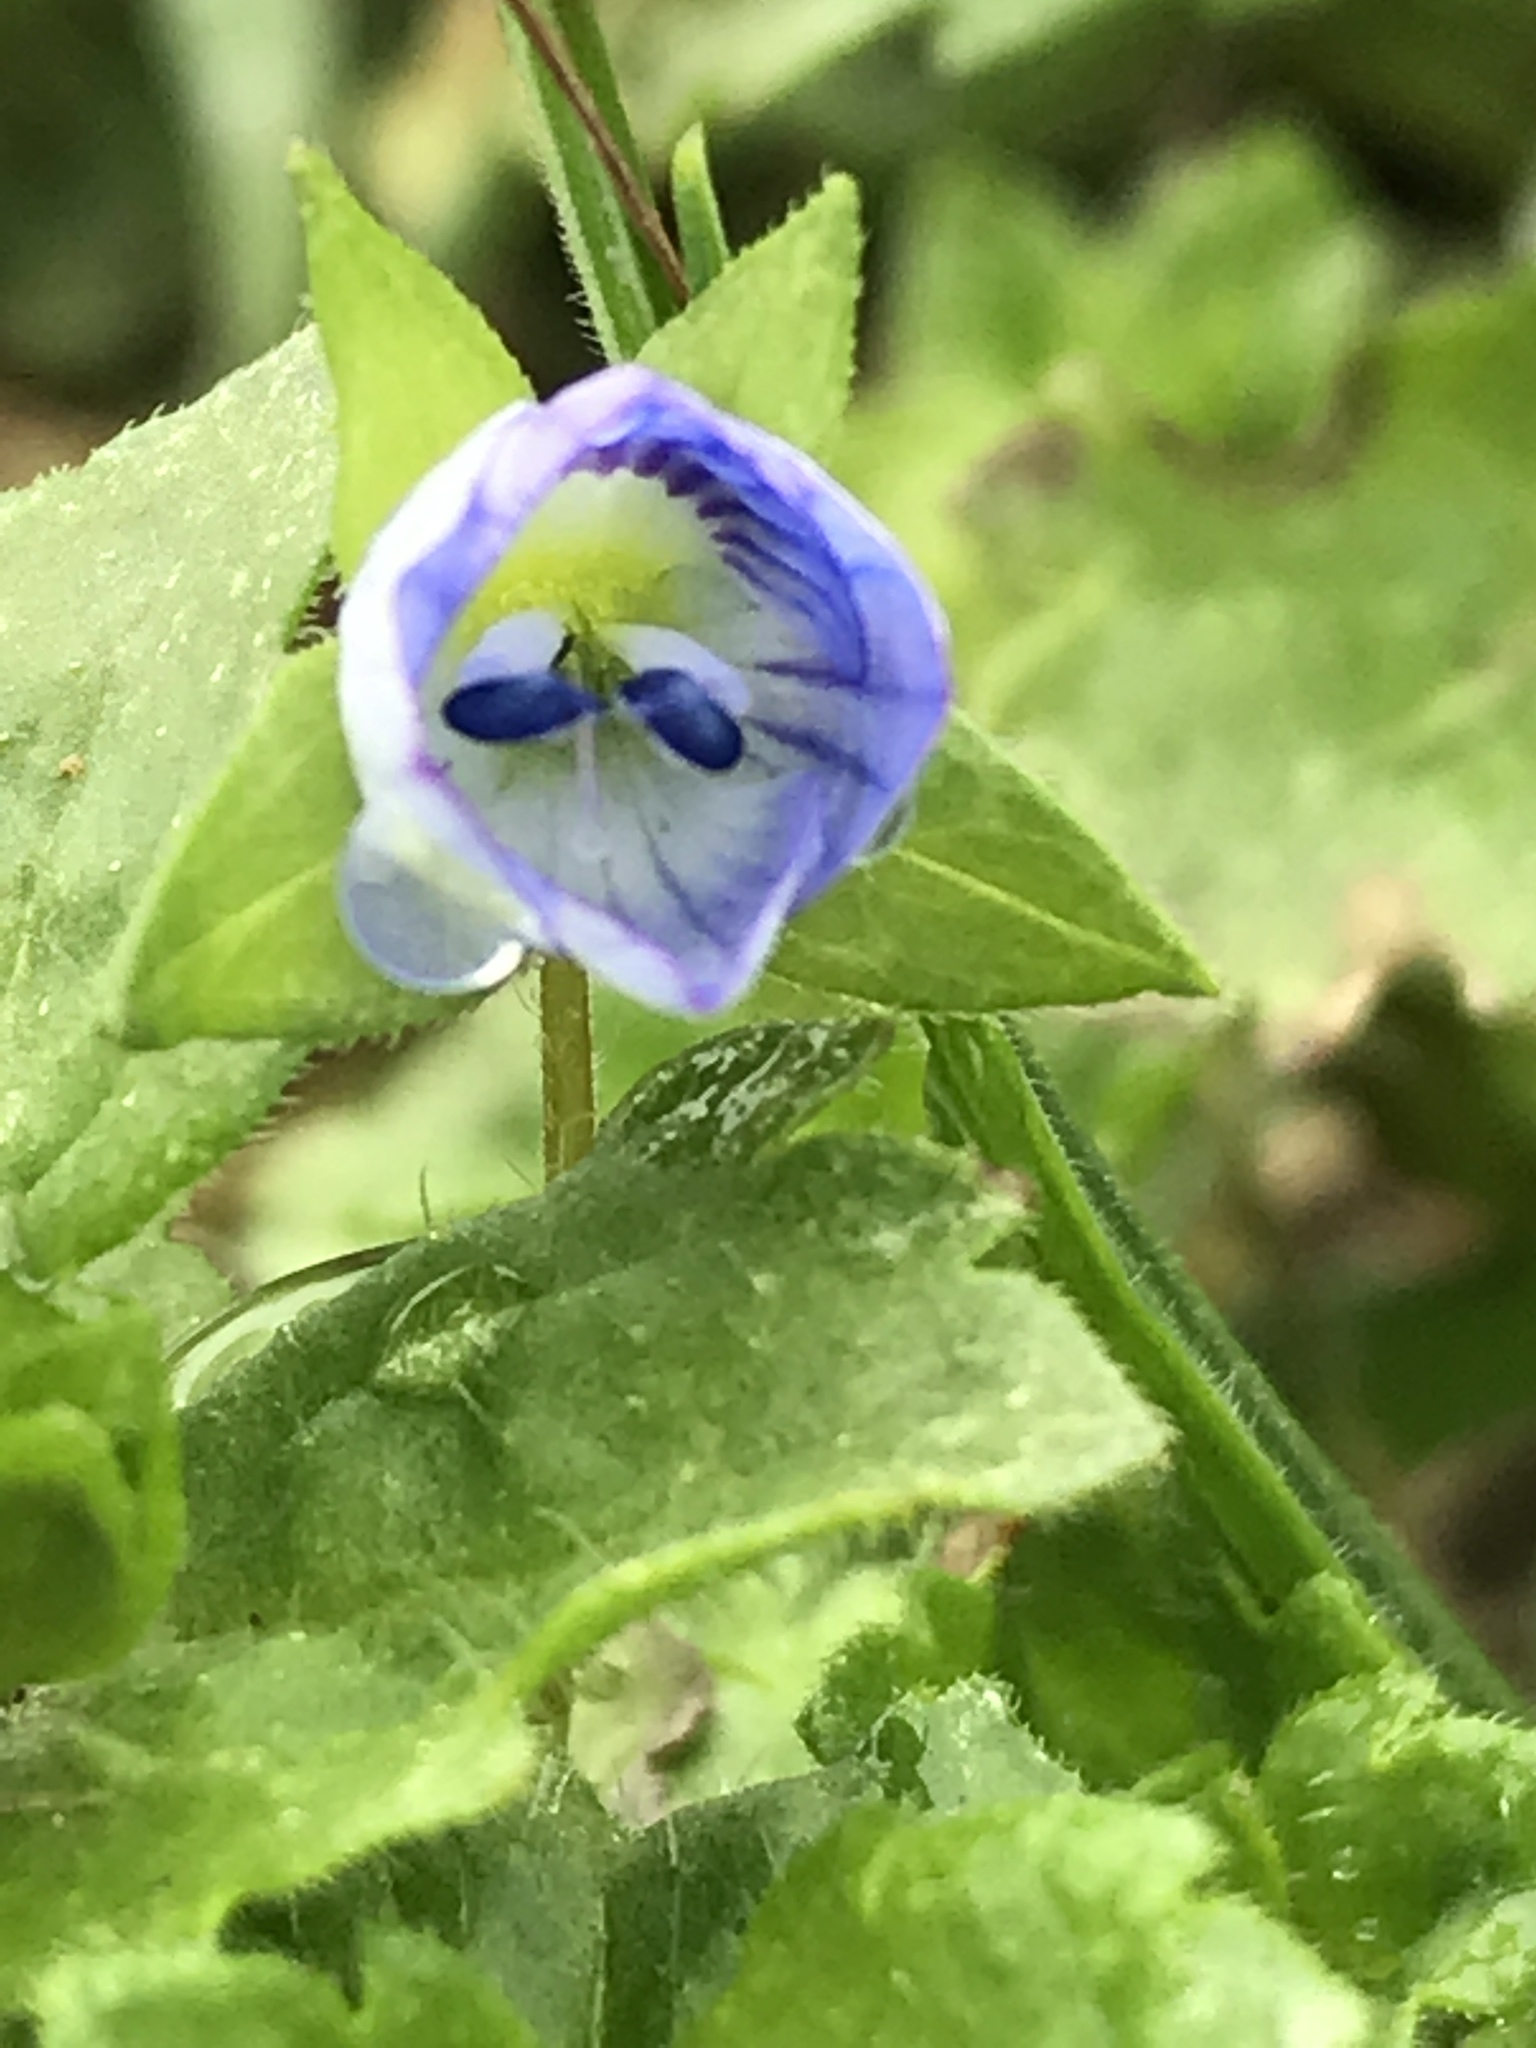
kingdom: Plantae
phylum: Tracheophyta
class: Magnoliopsida
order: Lamiales
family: Plantaginaceae
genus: Veronica
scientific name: Veronica persica
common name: Common field-speedwell
